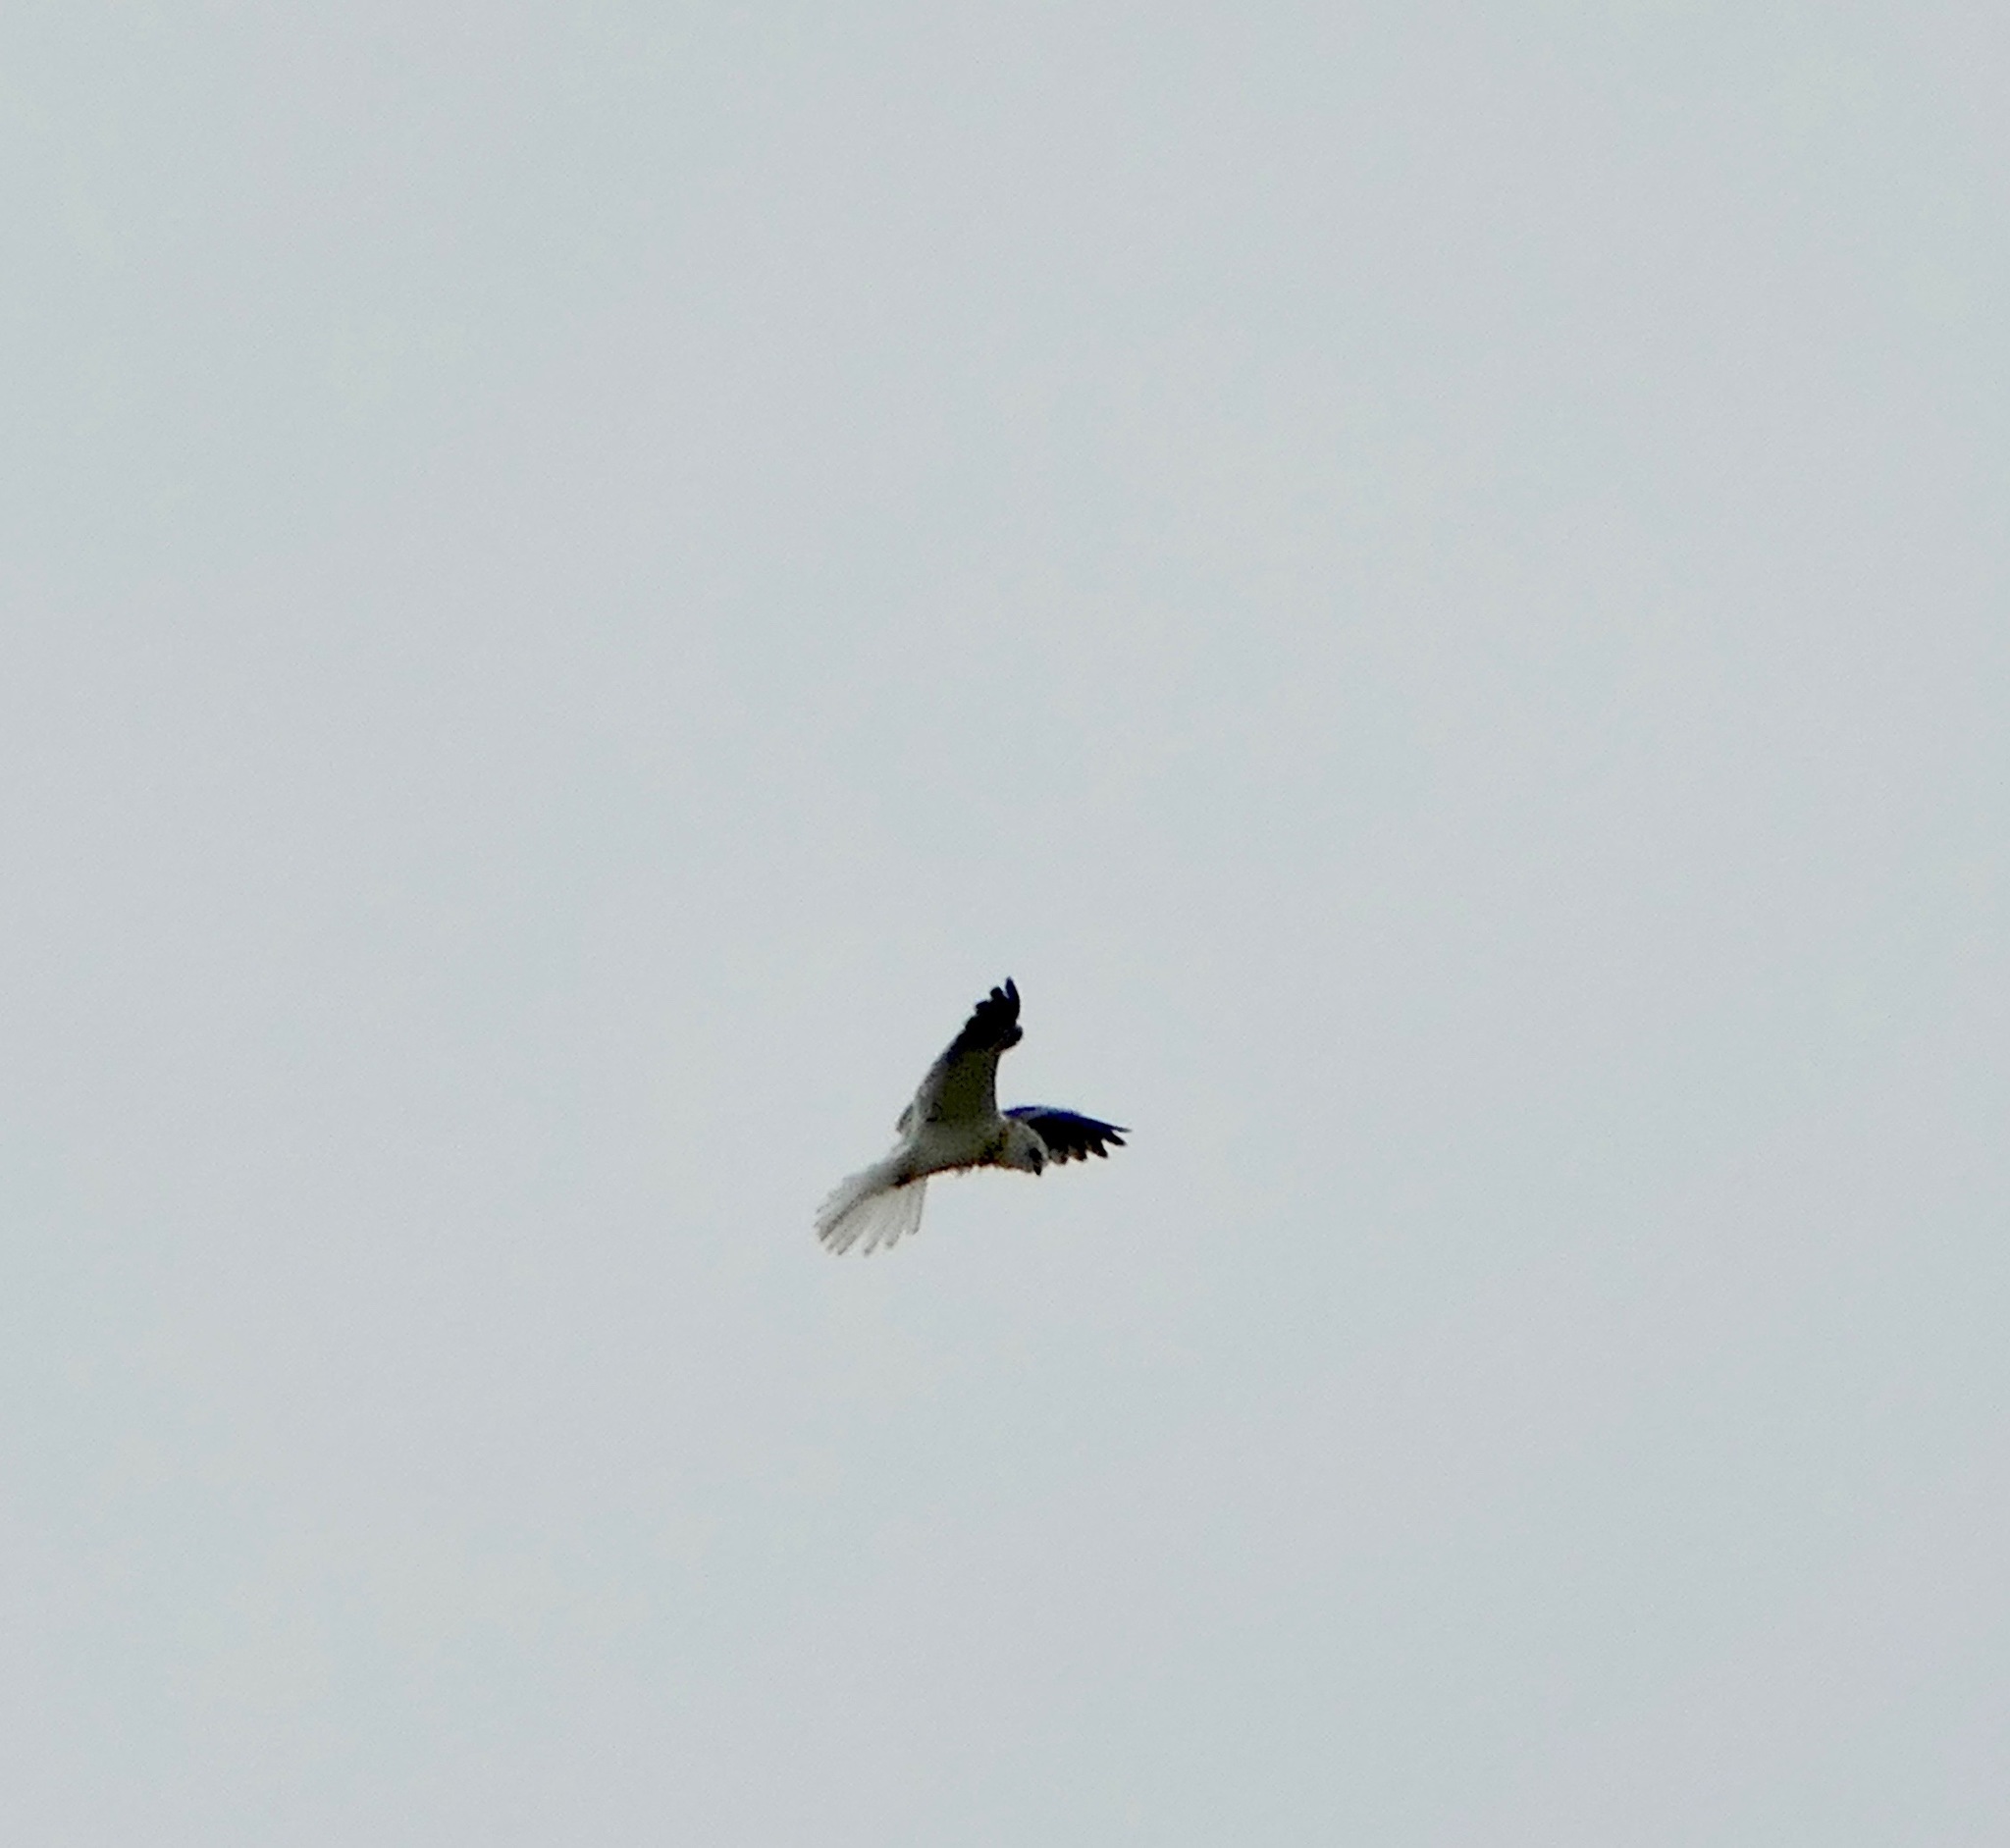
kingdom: Animalia
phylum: Chordata
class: Aves
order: Accipitriformes
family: Accipitridae
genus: Elanus
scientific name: Elanus leucurus
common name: White-tailed kite
